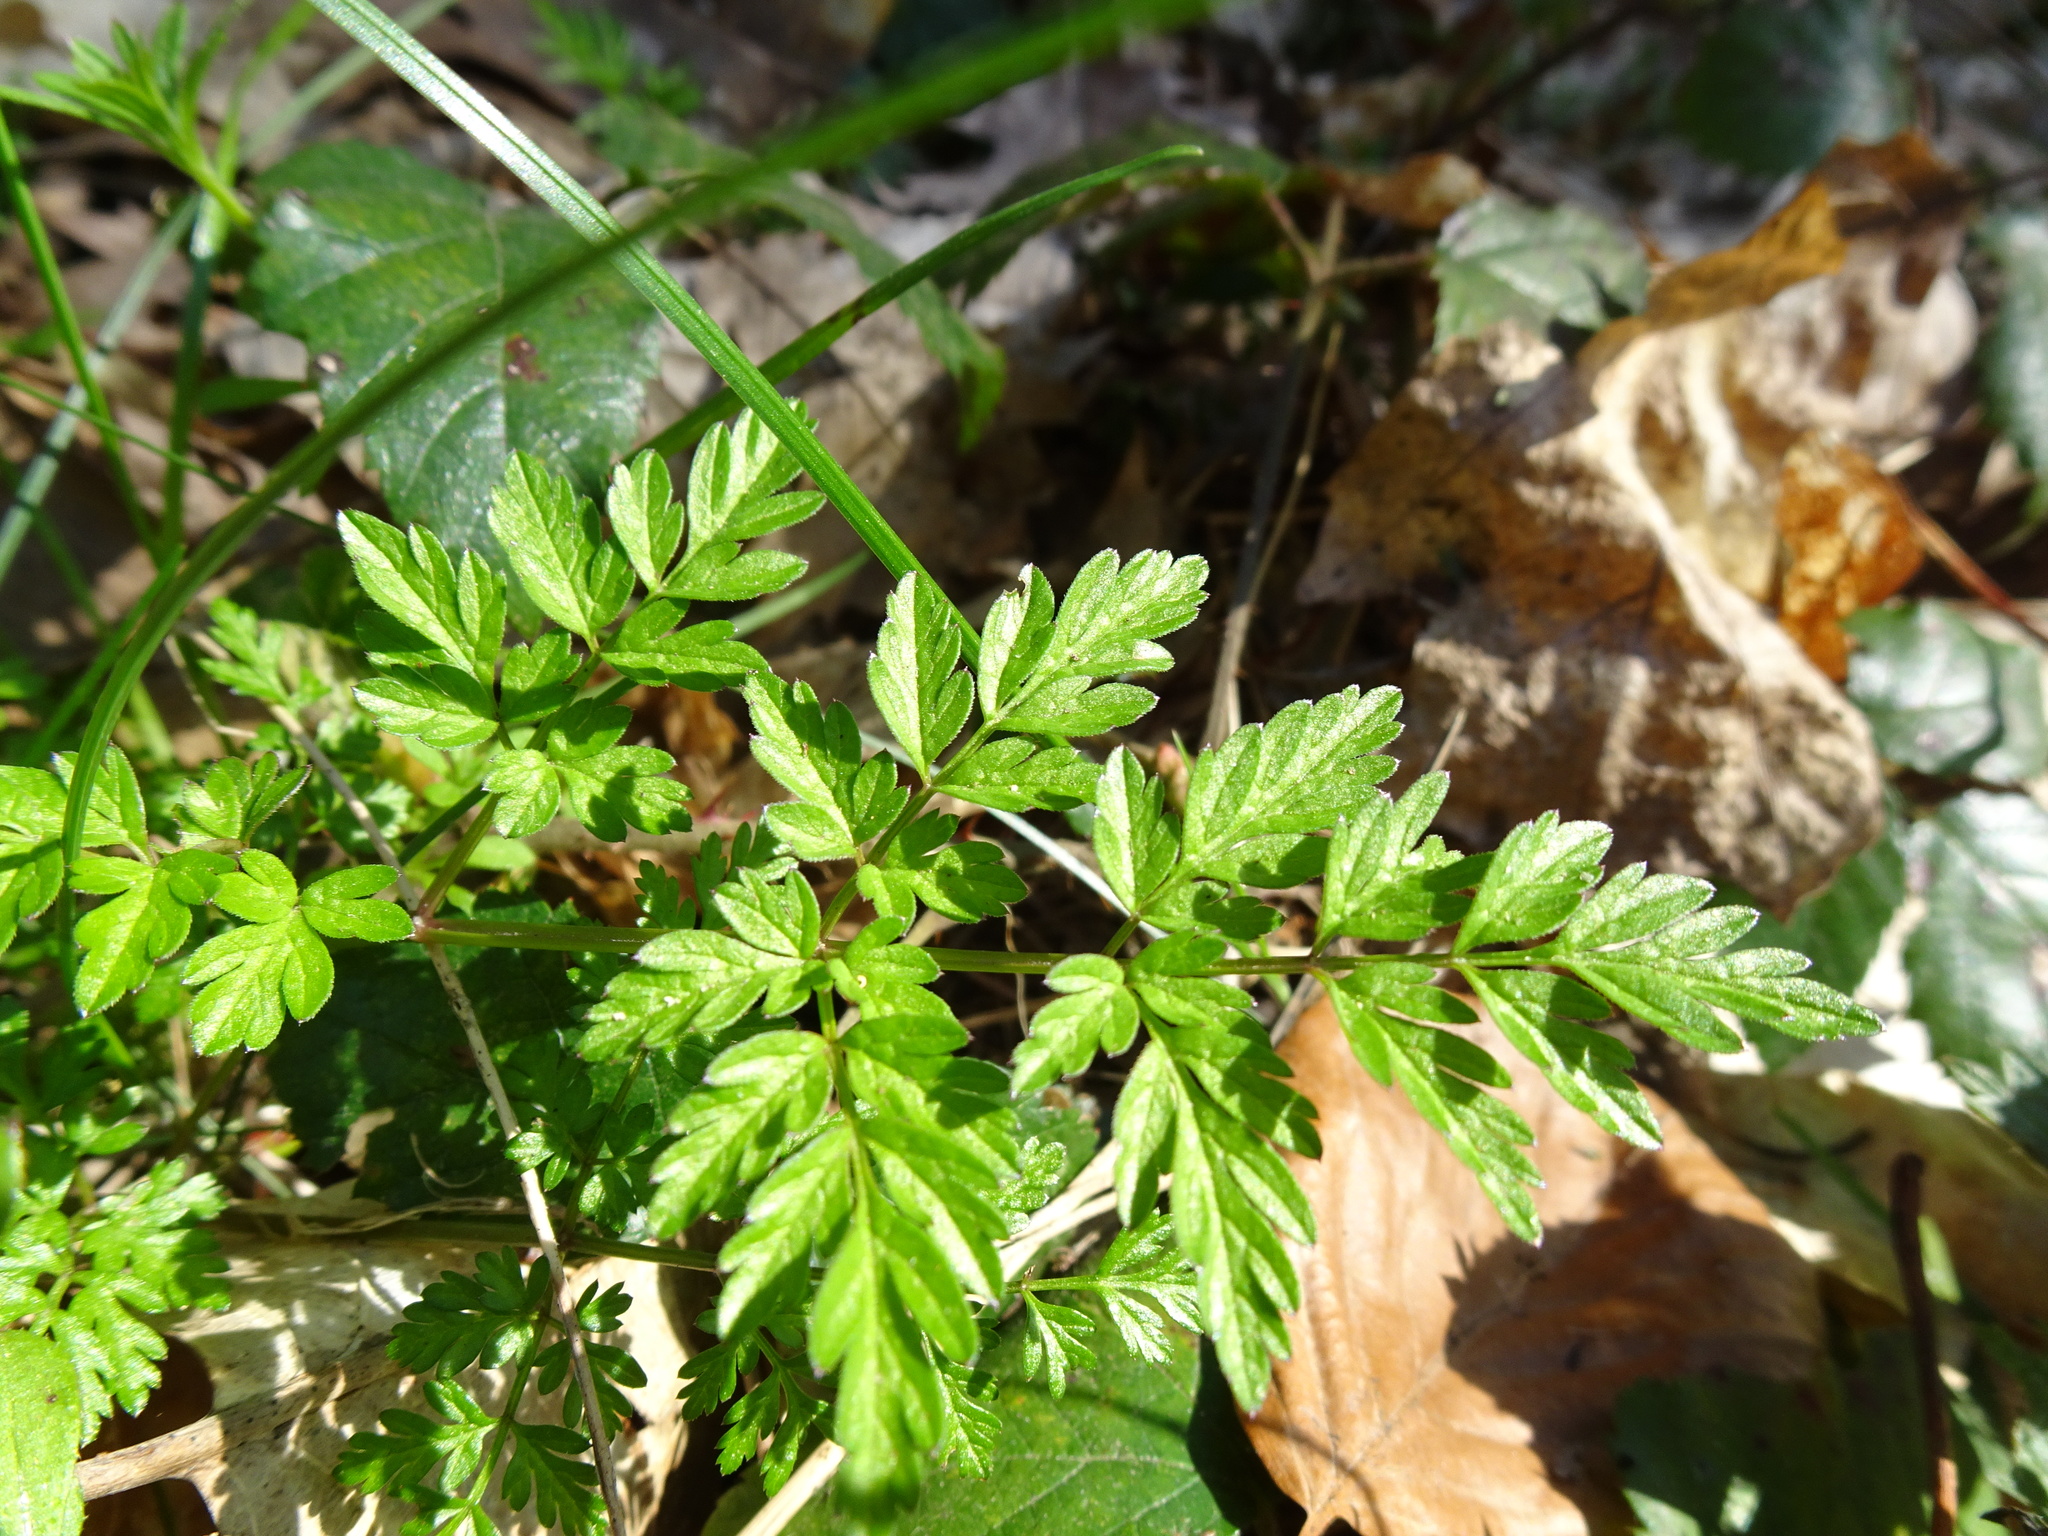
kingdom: Plantae
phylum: Tracheophyta
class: Magnoliopsida
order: Apiales
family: Apiaceae
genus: Anthriscus
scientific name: Anthriscus sylvestris
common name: Cow parsley
